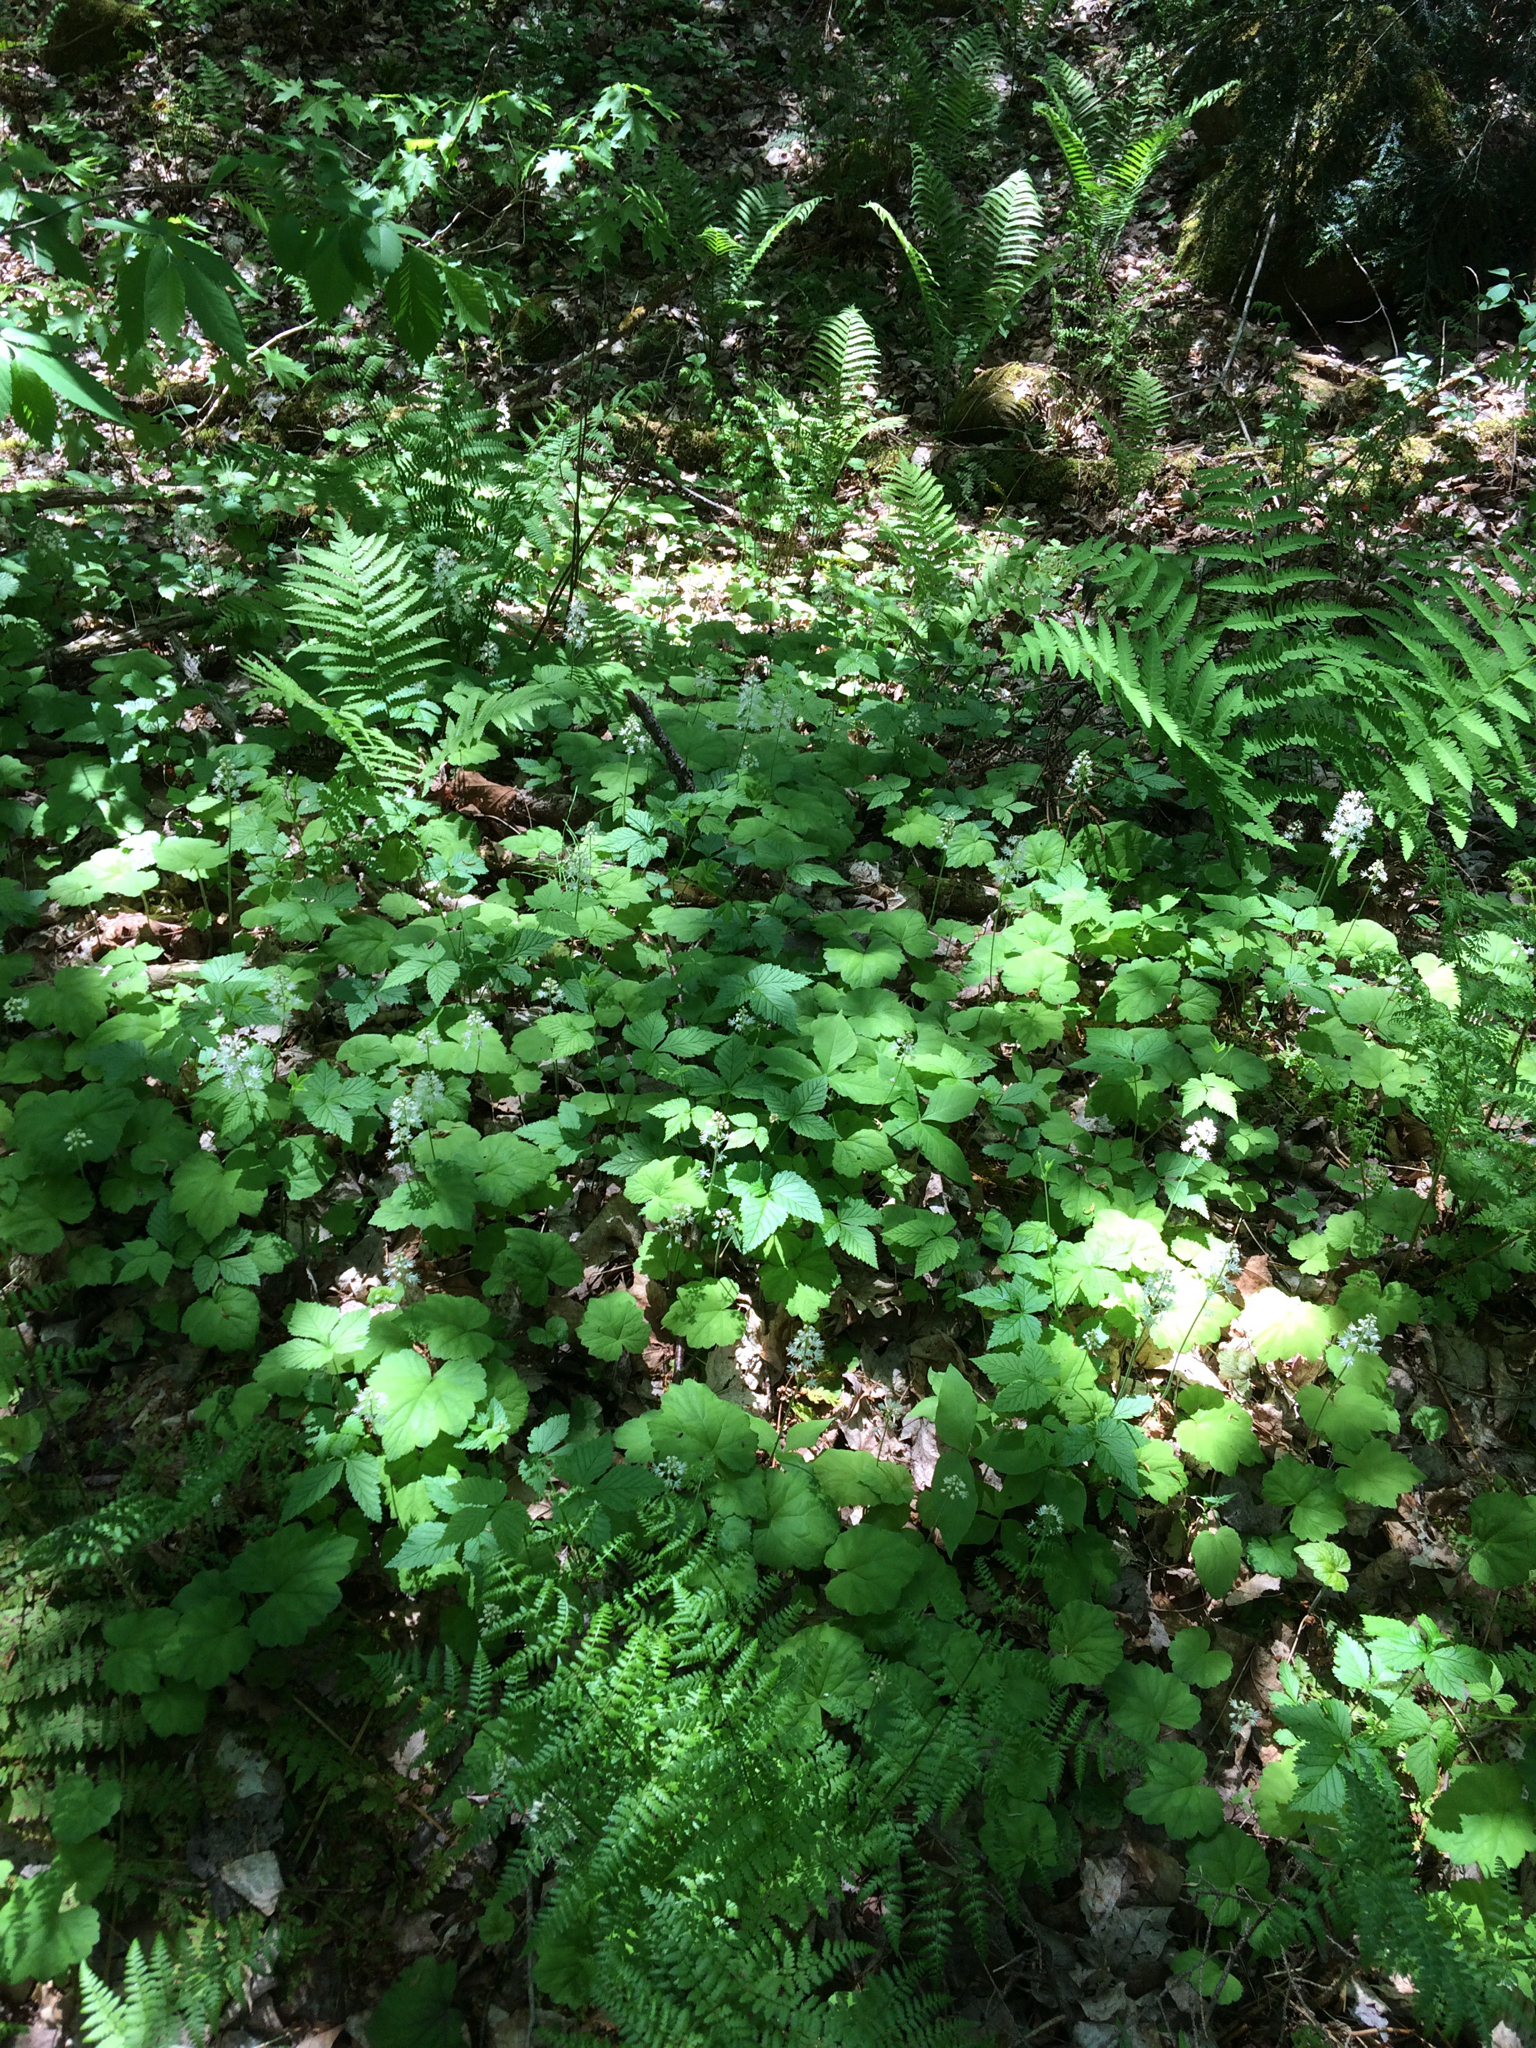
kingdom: Plantae
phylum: Tracheophyta
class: Magnoliopsida
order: Saxifragales
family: Saxifragaceae
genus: Tiarella
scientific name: Tiarella stolonifera
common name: Stoloniferous foamflower
